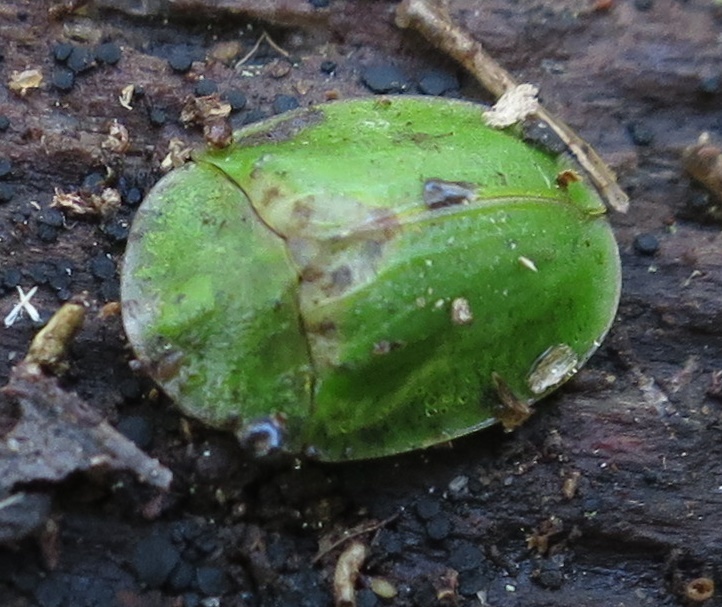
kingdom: Animalia
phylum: Arthropoda
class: Insecta
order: Coleoptera
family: Chrysomelidae
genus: Cassida
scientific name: Cassida rubiginosa
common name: Thistle tortoise beetle
